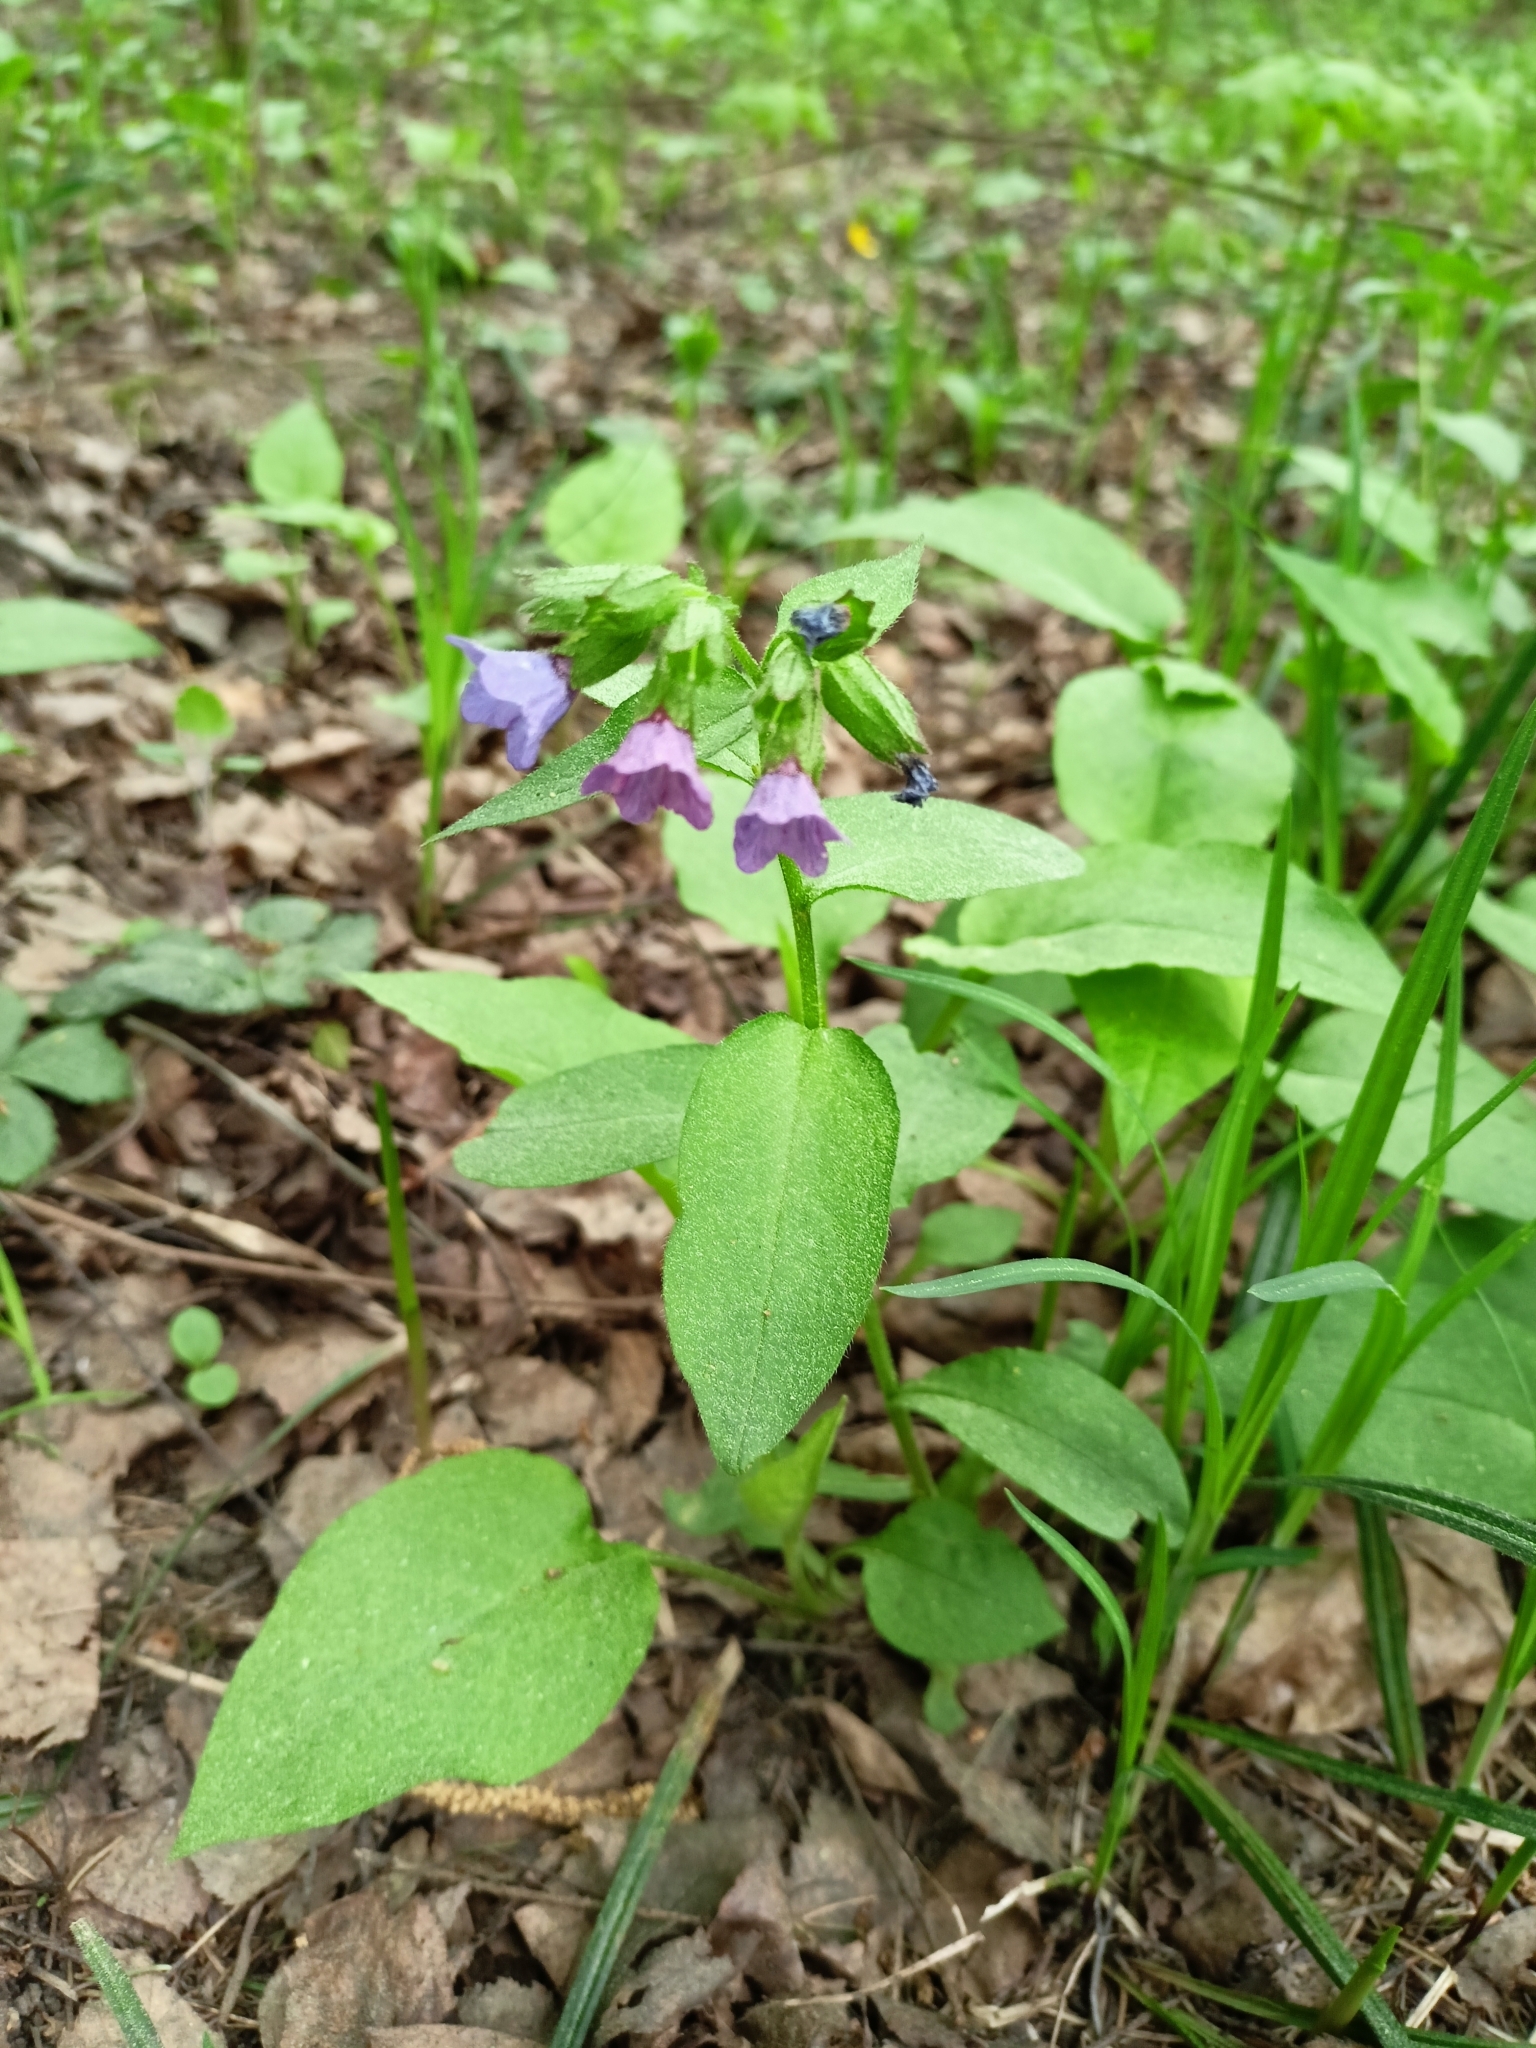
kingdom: Plantae
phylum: Tracheophyta
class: Magnoliopsida
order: Boraginales
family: Boraginaceae
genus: Pulmonaria
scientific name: Pulmonaria obscura
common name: Suffolk lungwort
